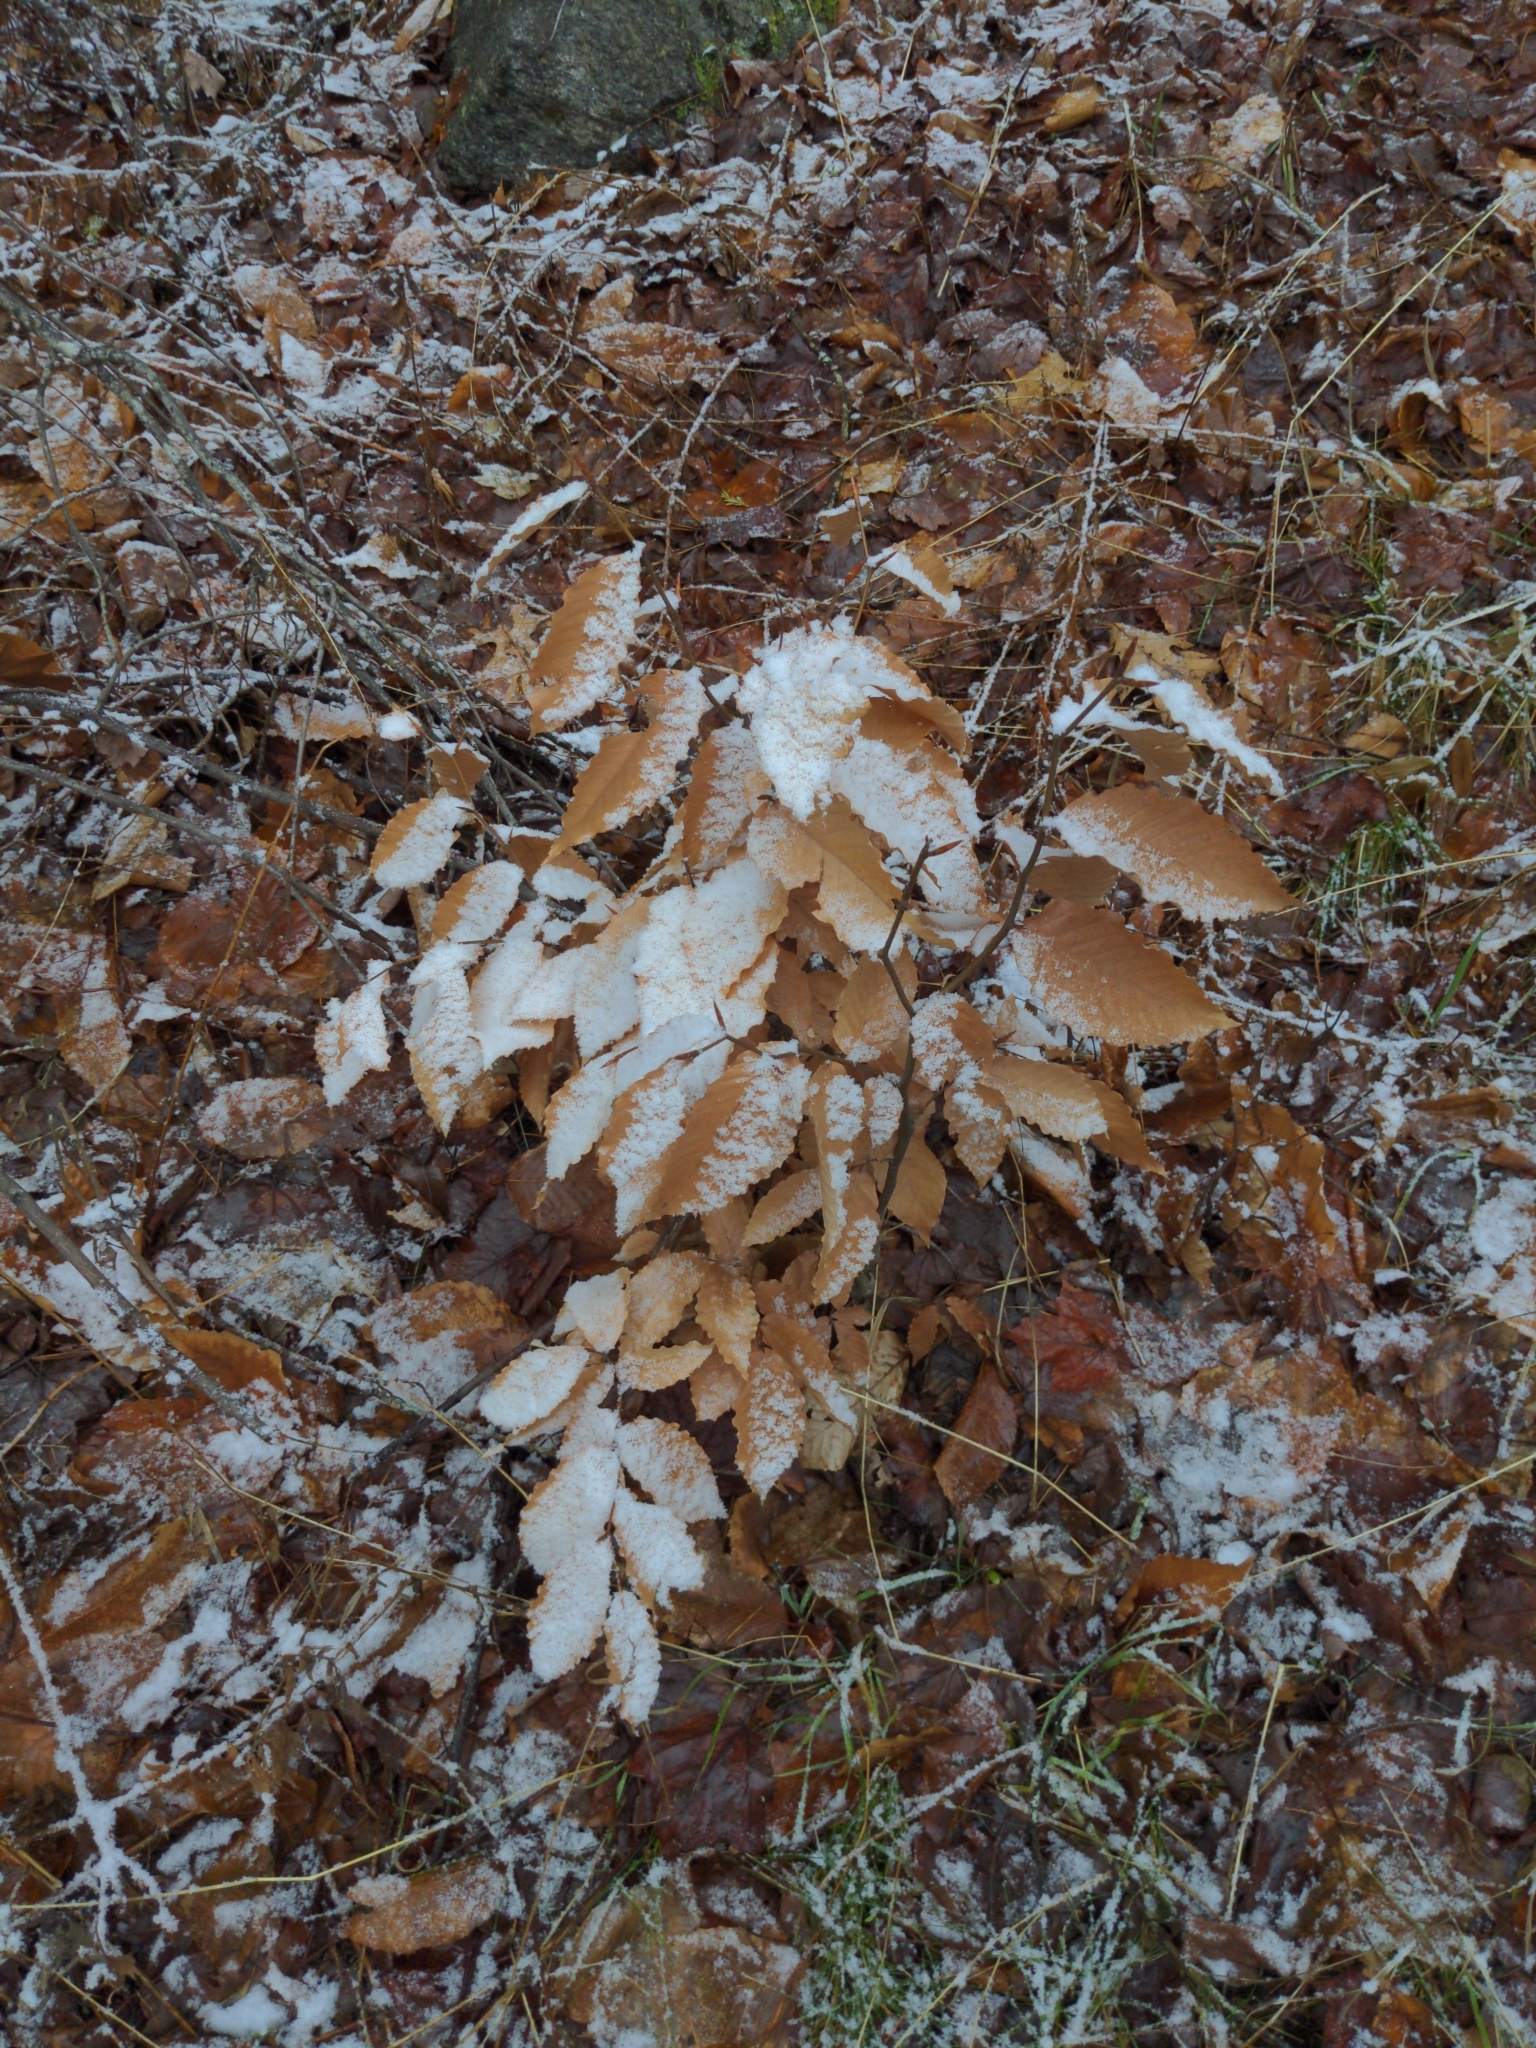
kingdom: Plantae
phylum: Tracheophyta
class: Magnoliopsida
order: Fagales
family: Fagaceae
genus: Fagus
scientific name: Fagus grandifolia
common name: American beech
